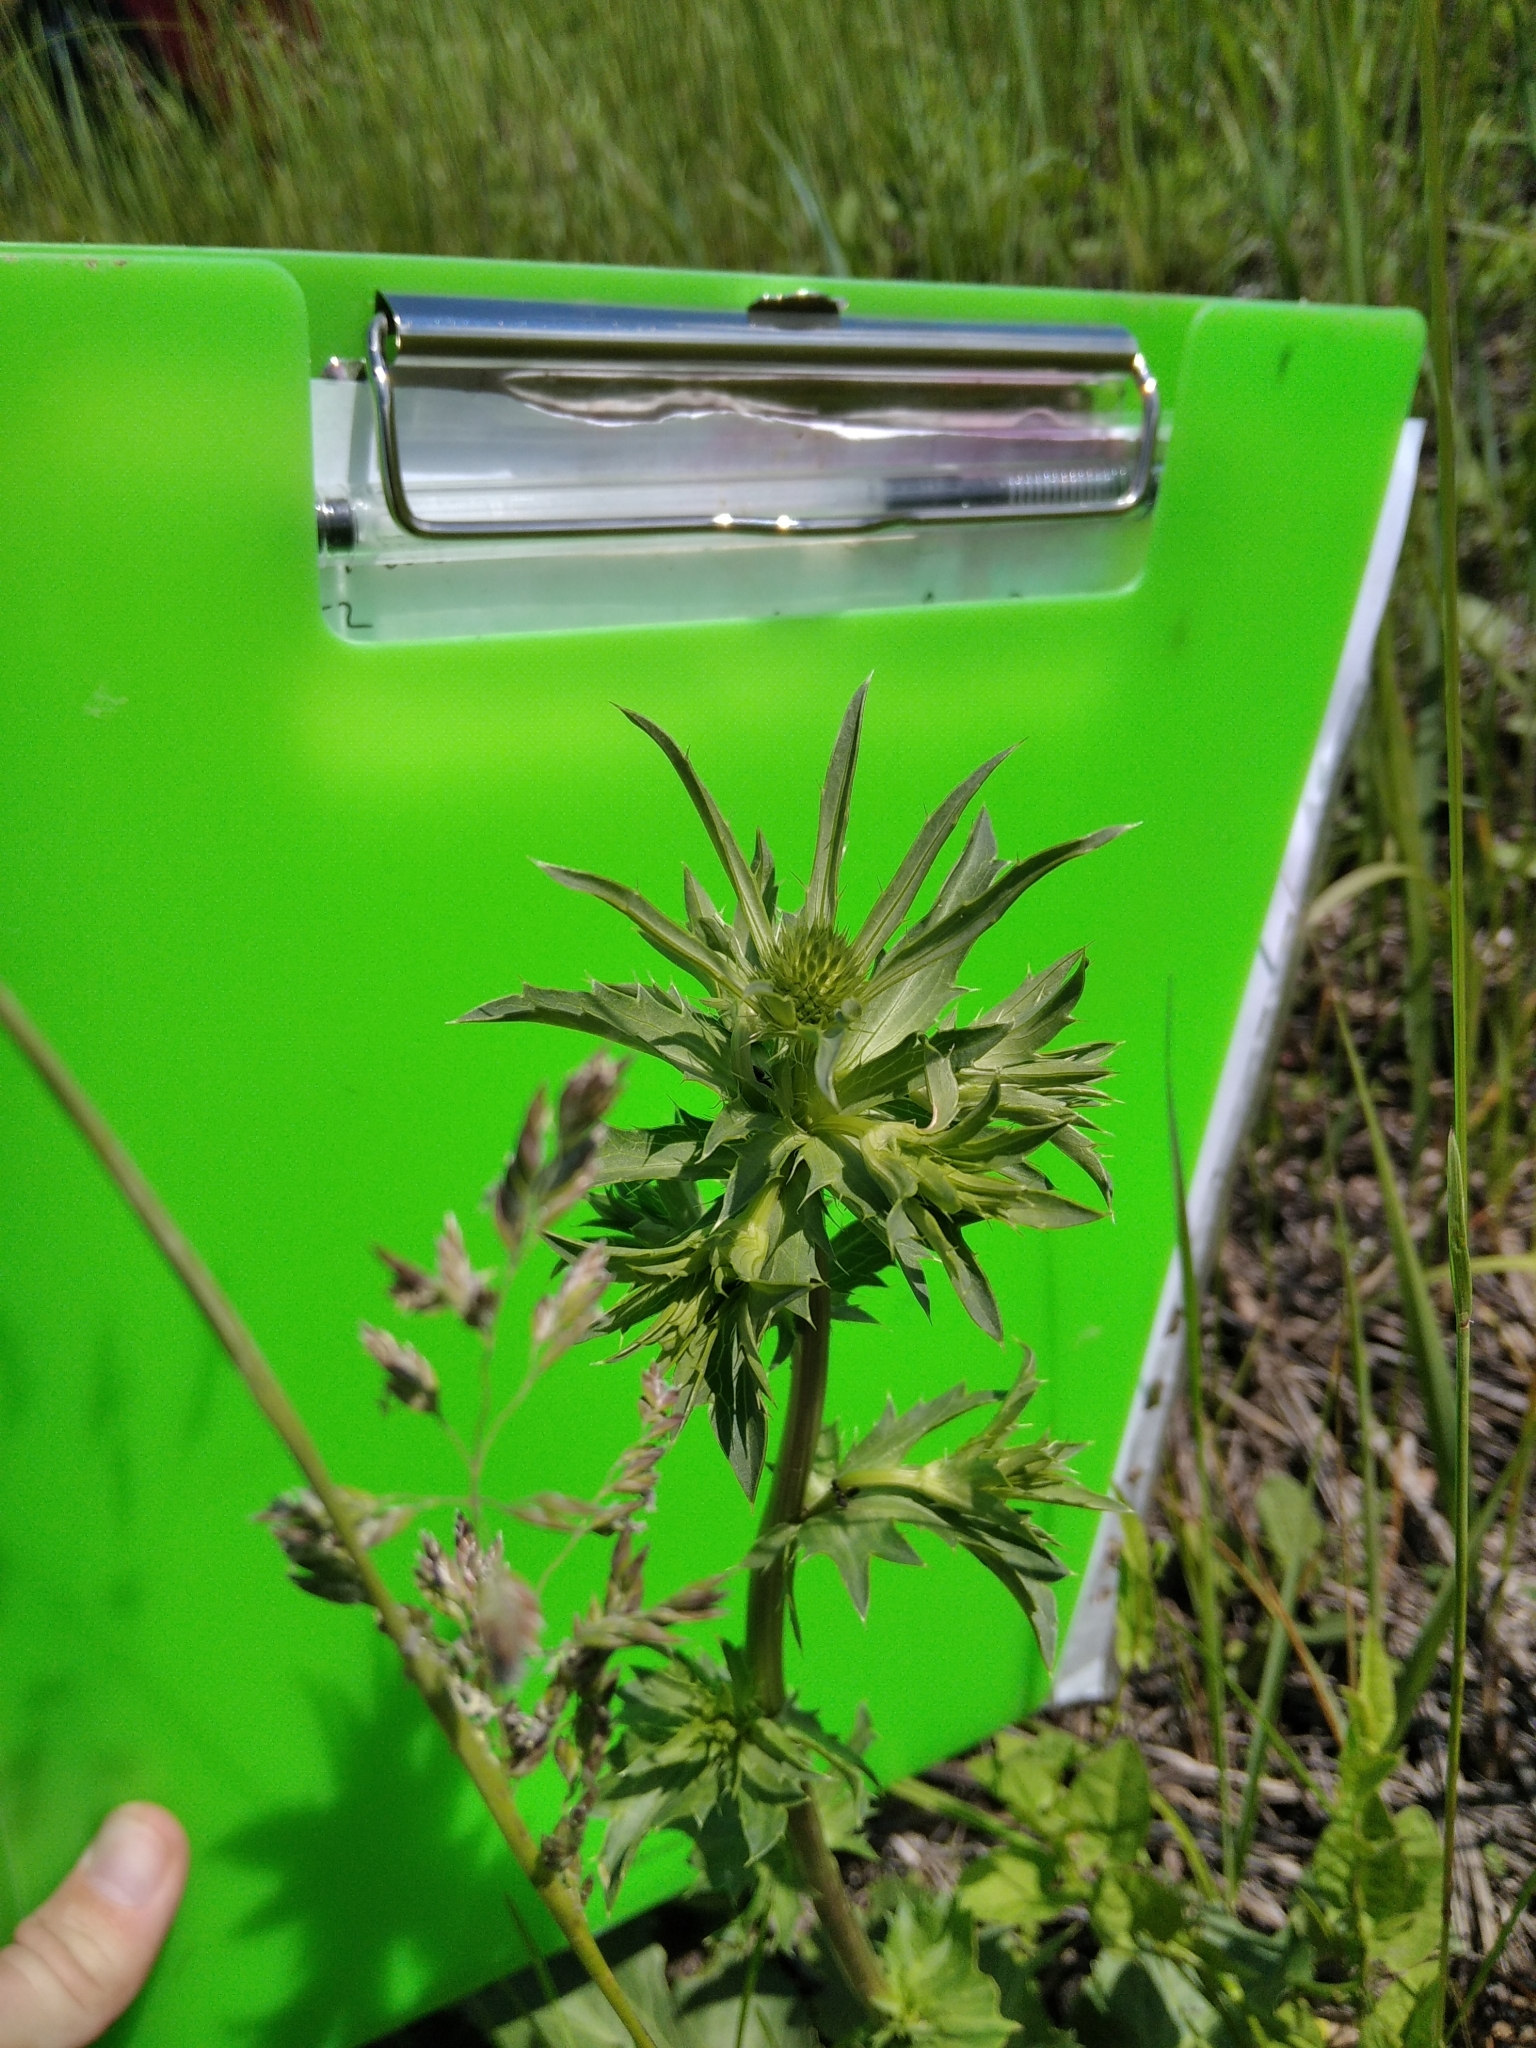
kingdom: Plantae
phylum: Tracheophyta
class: Magnoliopsida
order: Apiales
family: Apiaceae
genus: Eryngium
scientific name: Eryngium planum
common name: Blue eryngo
